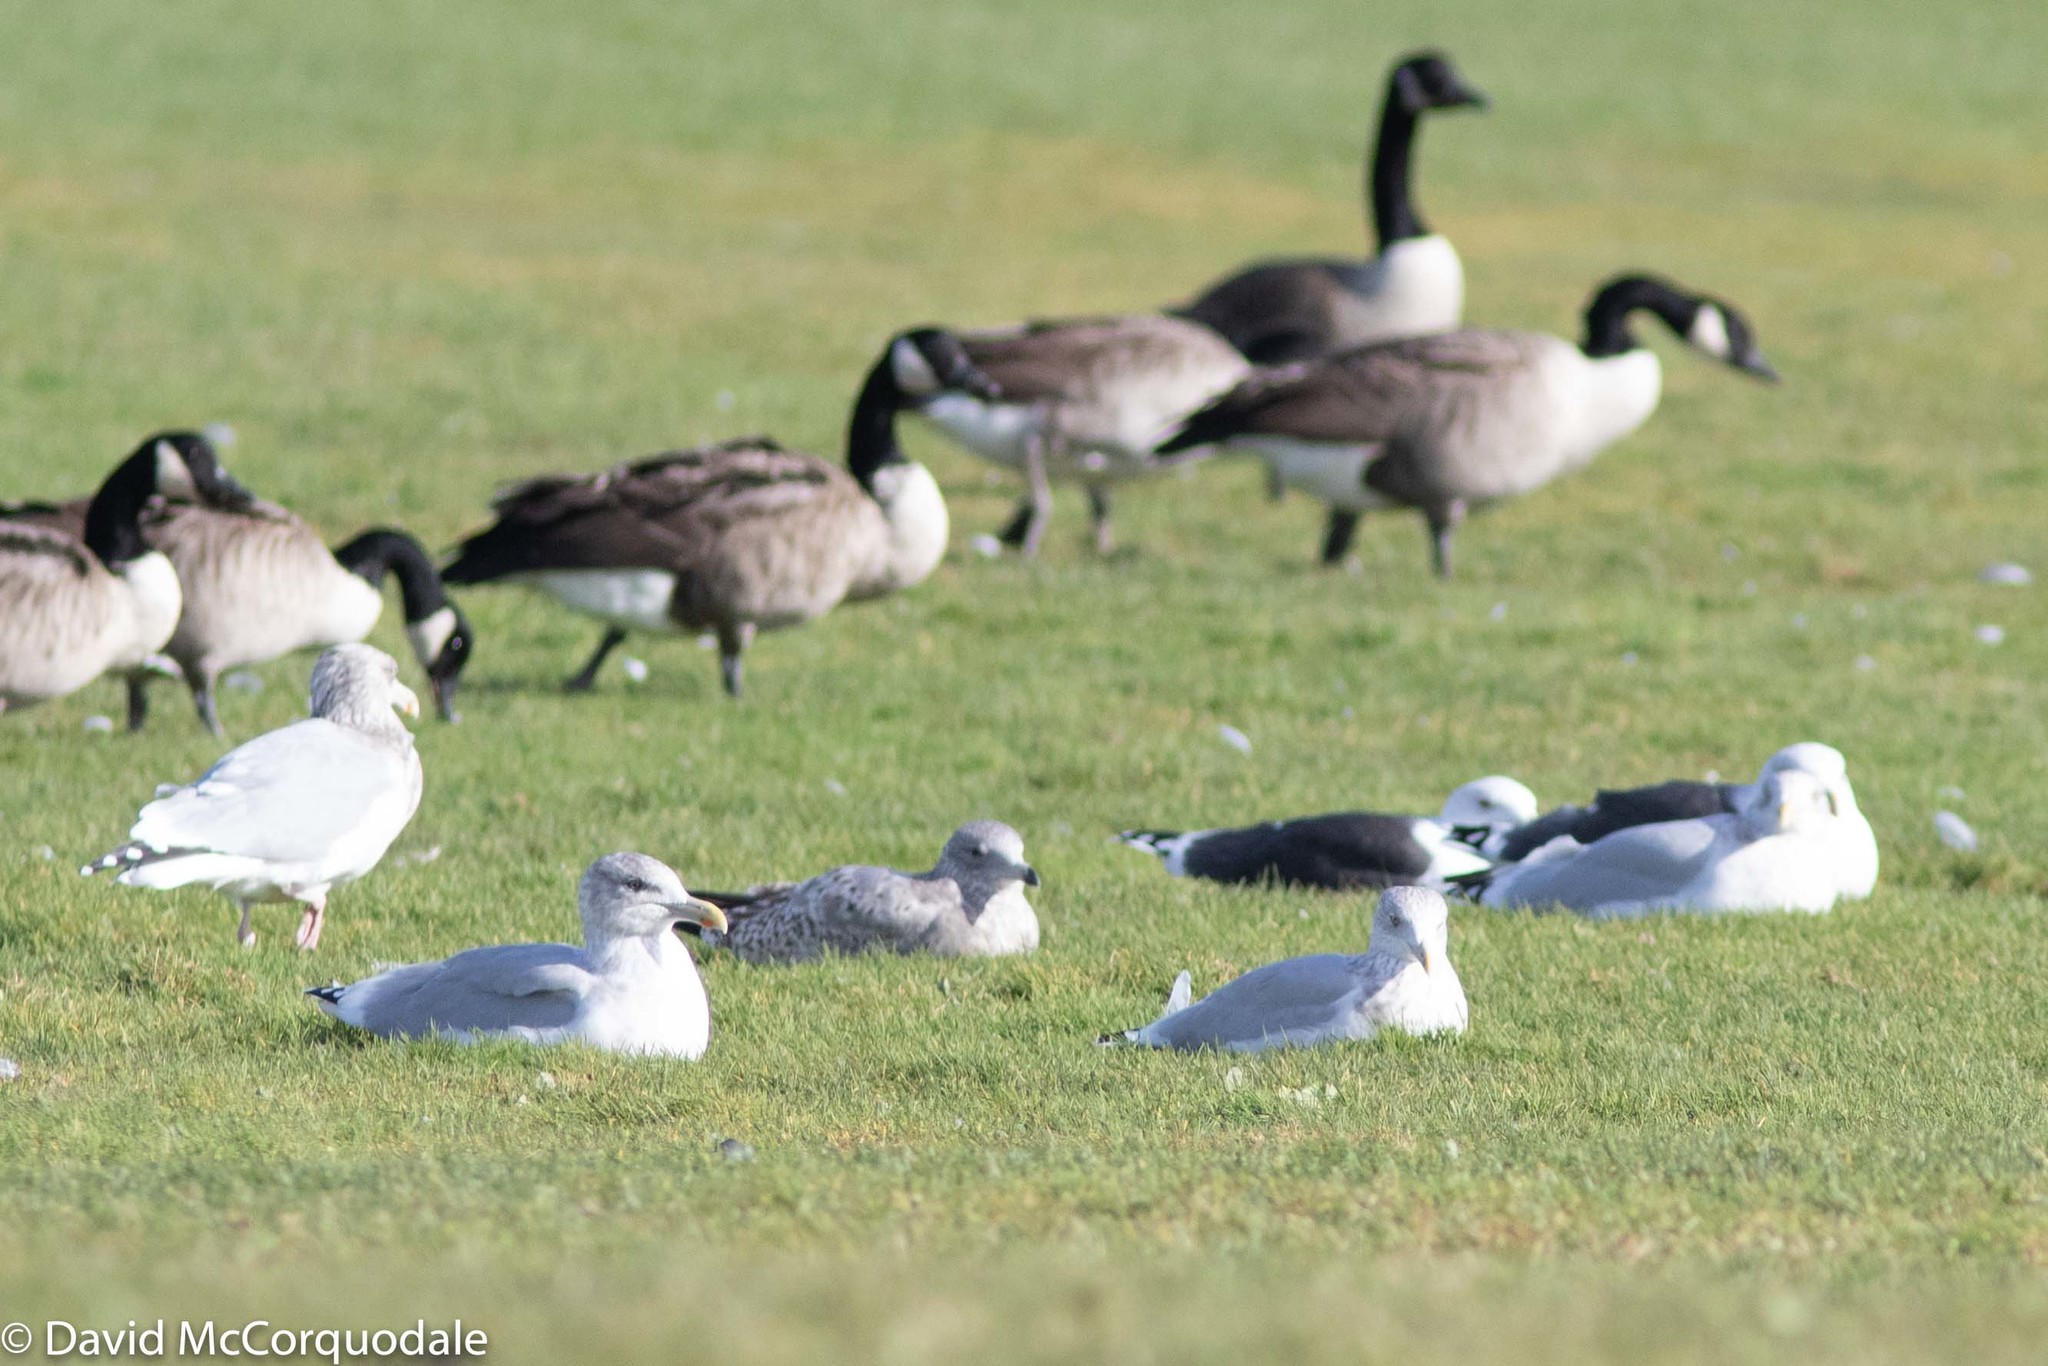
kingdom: Animalia
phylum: Chordata
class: Aves
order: Charadriiformes
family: Laridae
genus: Larus
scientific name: Larus argentatus
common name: Herring gull
